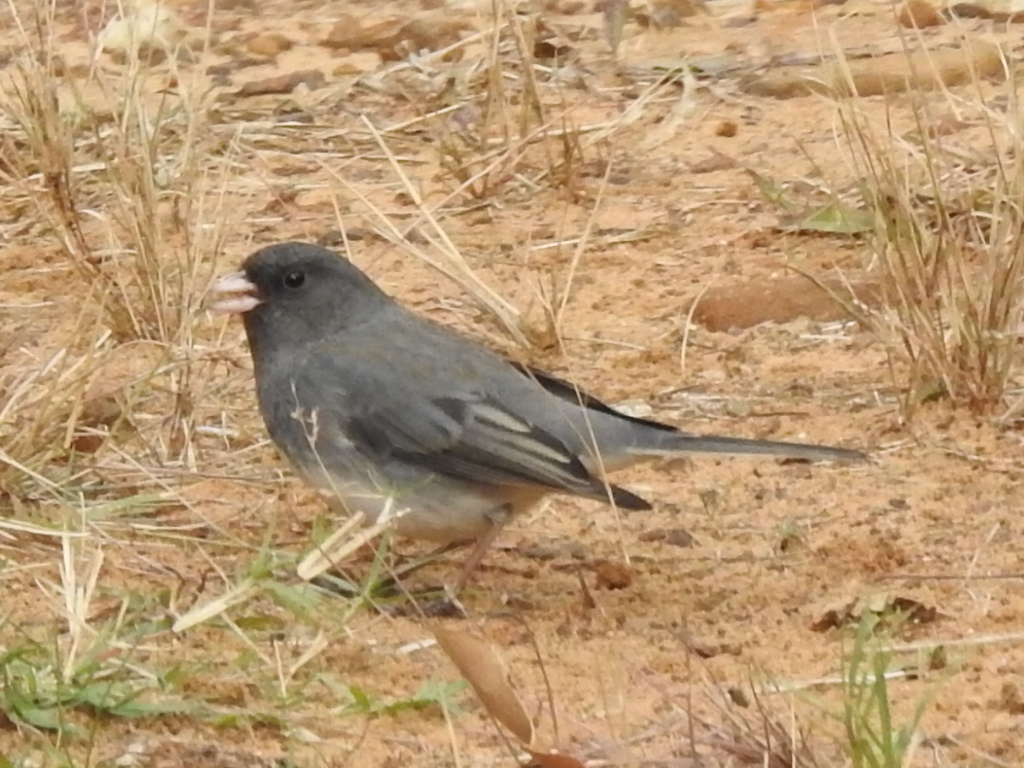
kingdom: Animalia
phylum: Chordata
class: Aves
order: Passeriformes
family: Passerellidae
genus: Junco
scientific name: Junco hyemalis
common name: Dark-eyed junco
